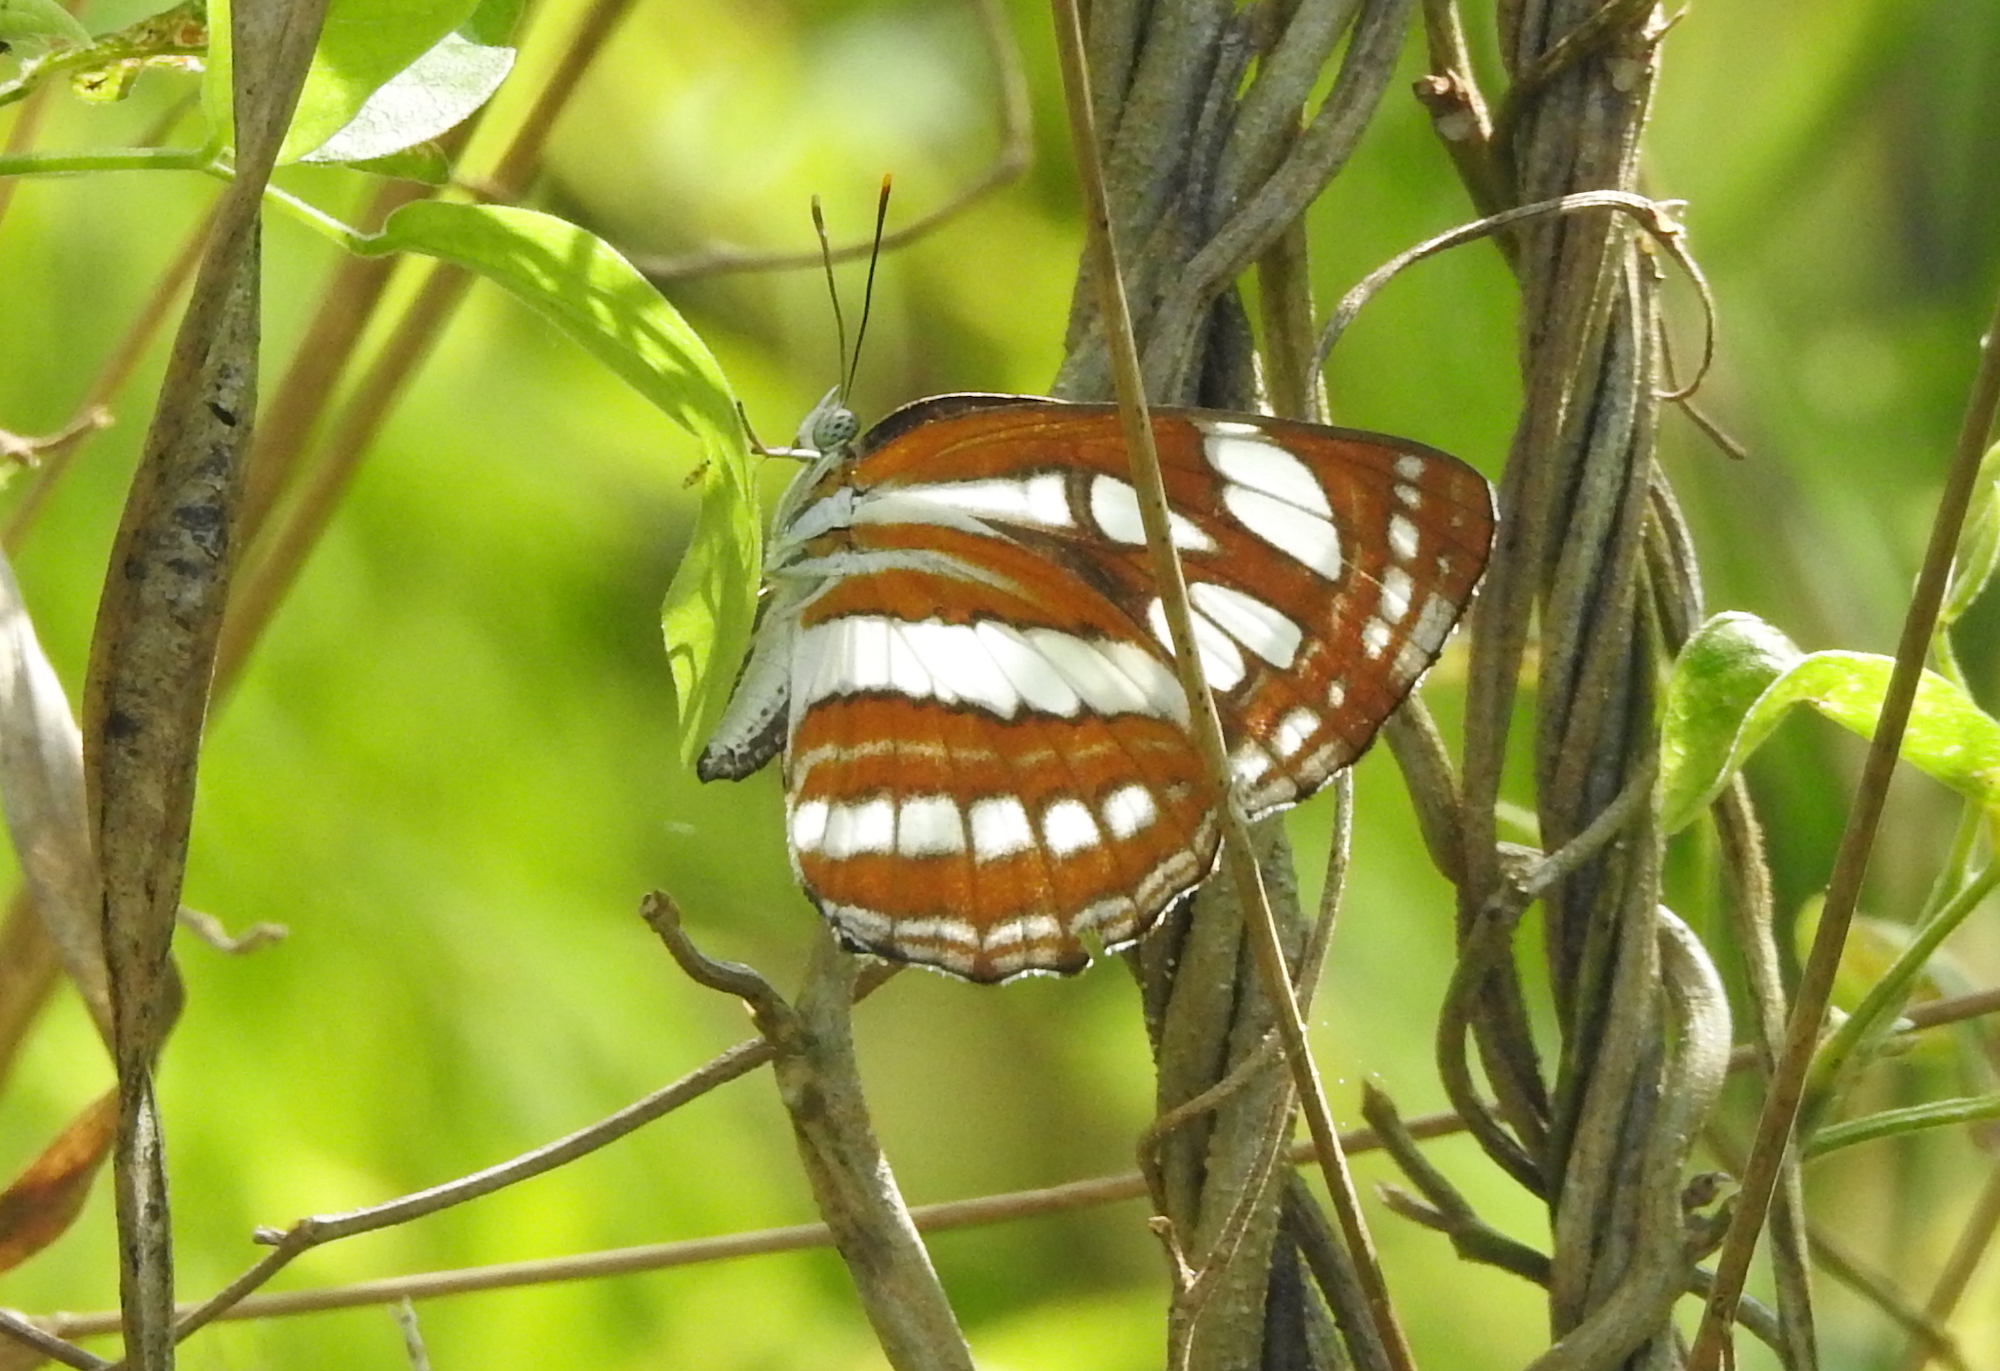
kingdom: Animalia
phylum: Arthropoda
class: Insecta
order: Lepidoptera
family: Nymphalidae
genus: Neptis
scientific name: Neptis hylas
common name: Common sailer
